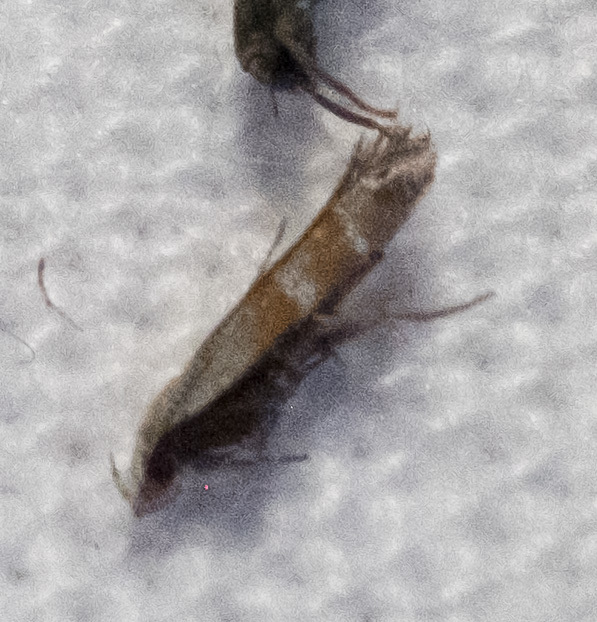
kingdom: Animalia
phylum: Arthropoda
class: Insecta
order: Lepidoptera
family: Gelechiidae
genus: Battaristis
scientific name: Battaristis vittella
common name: Orange stripe-backed moth
